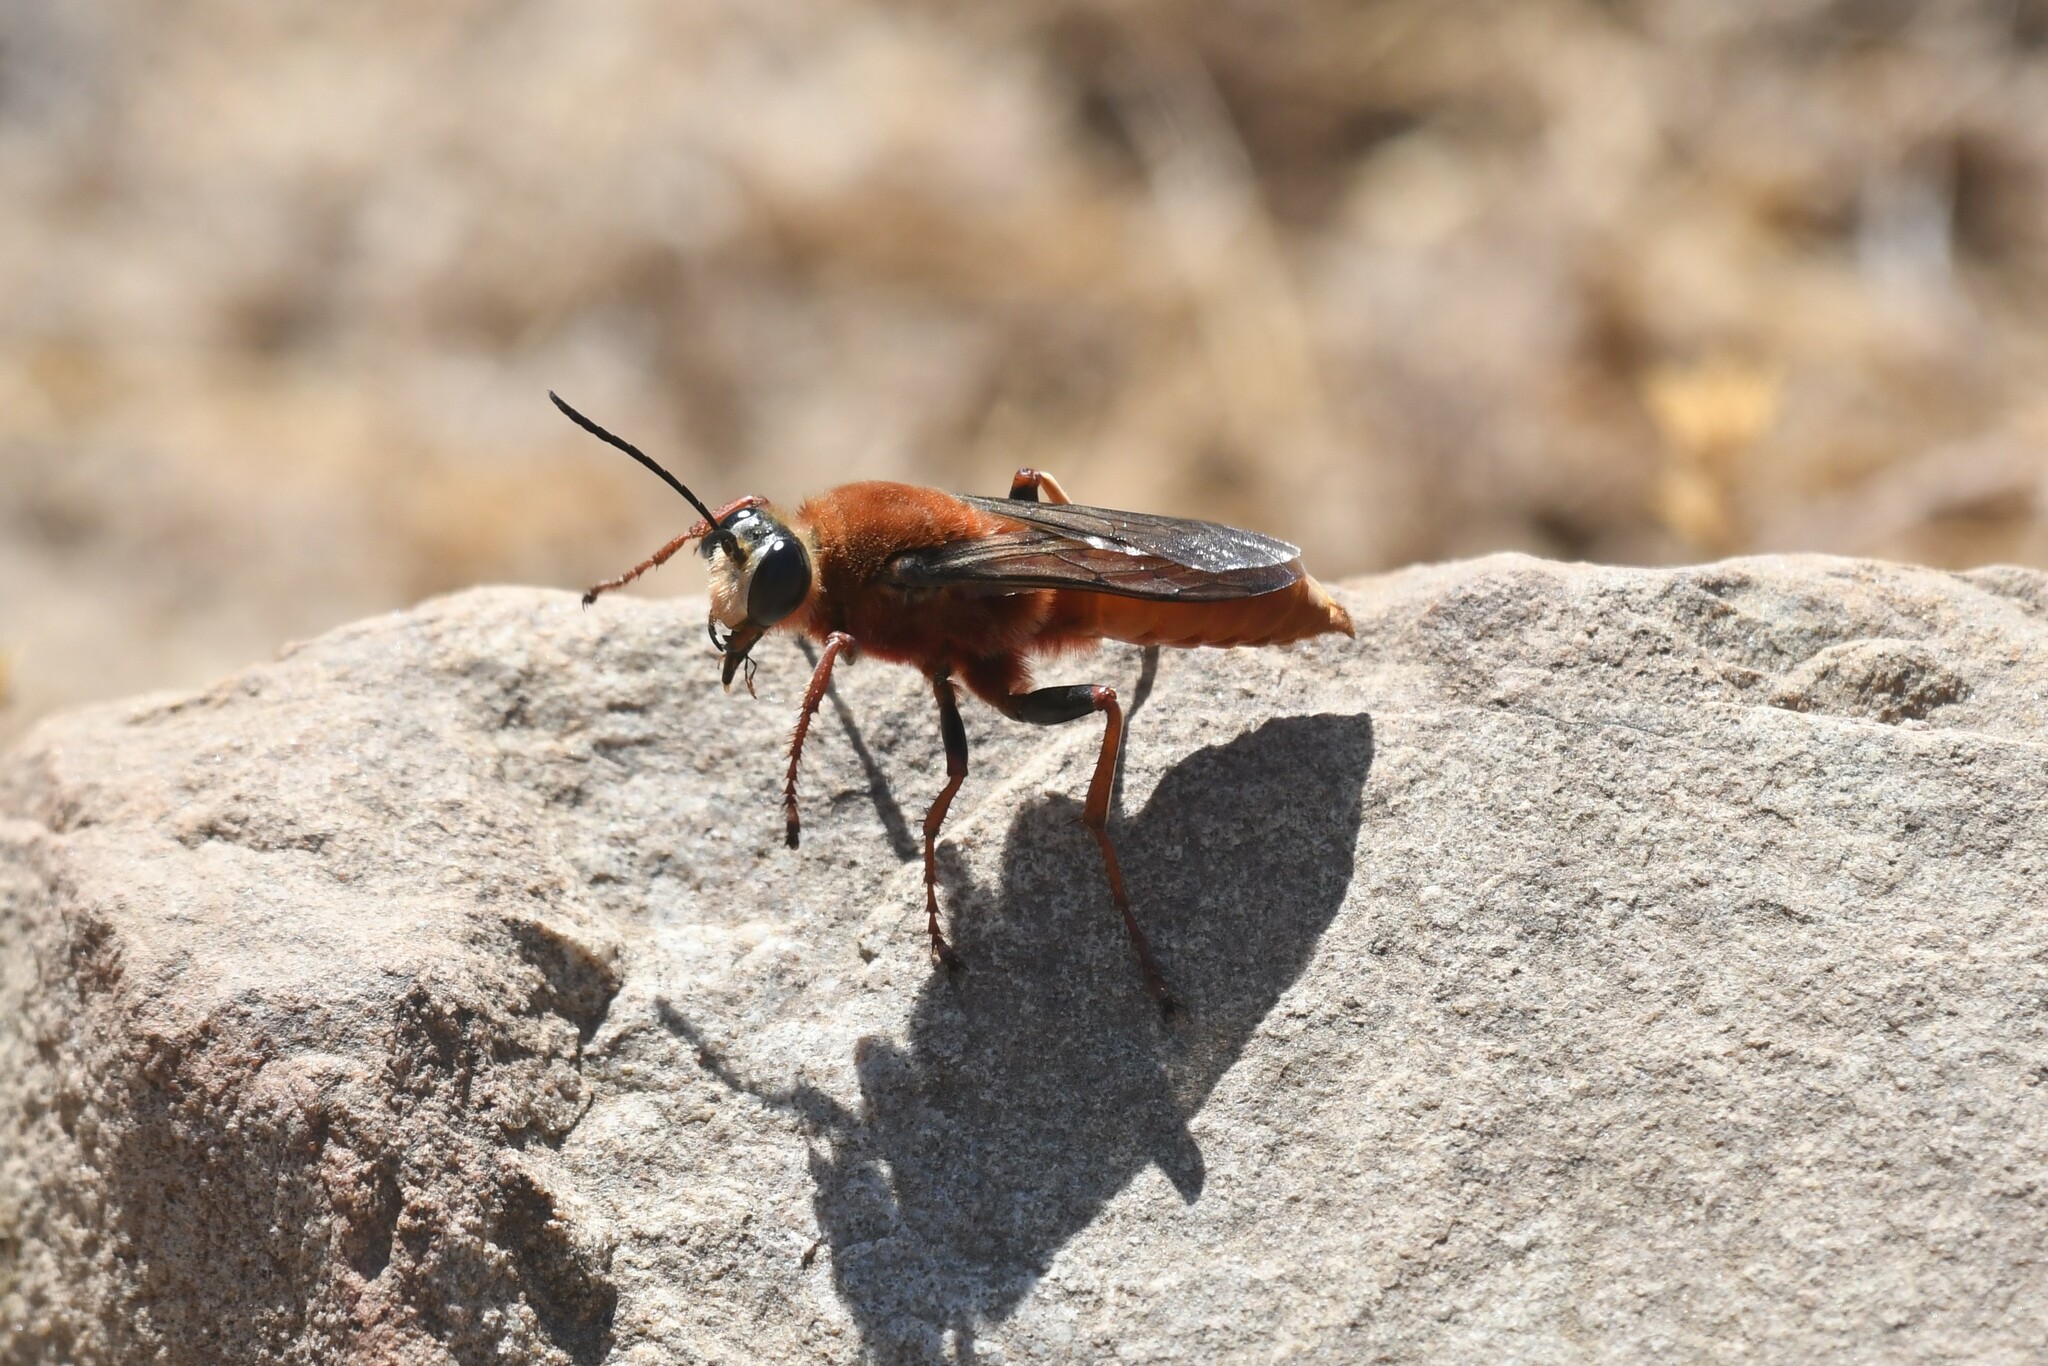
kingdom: Animalia
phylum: Arthropoda
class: Insecta
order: Hymenoptera
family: Sphecidae
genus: Sphex
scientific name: Sphex latreillei
